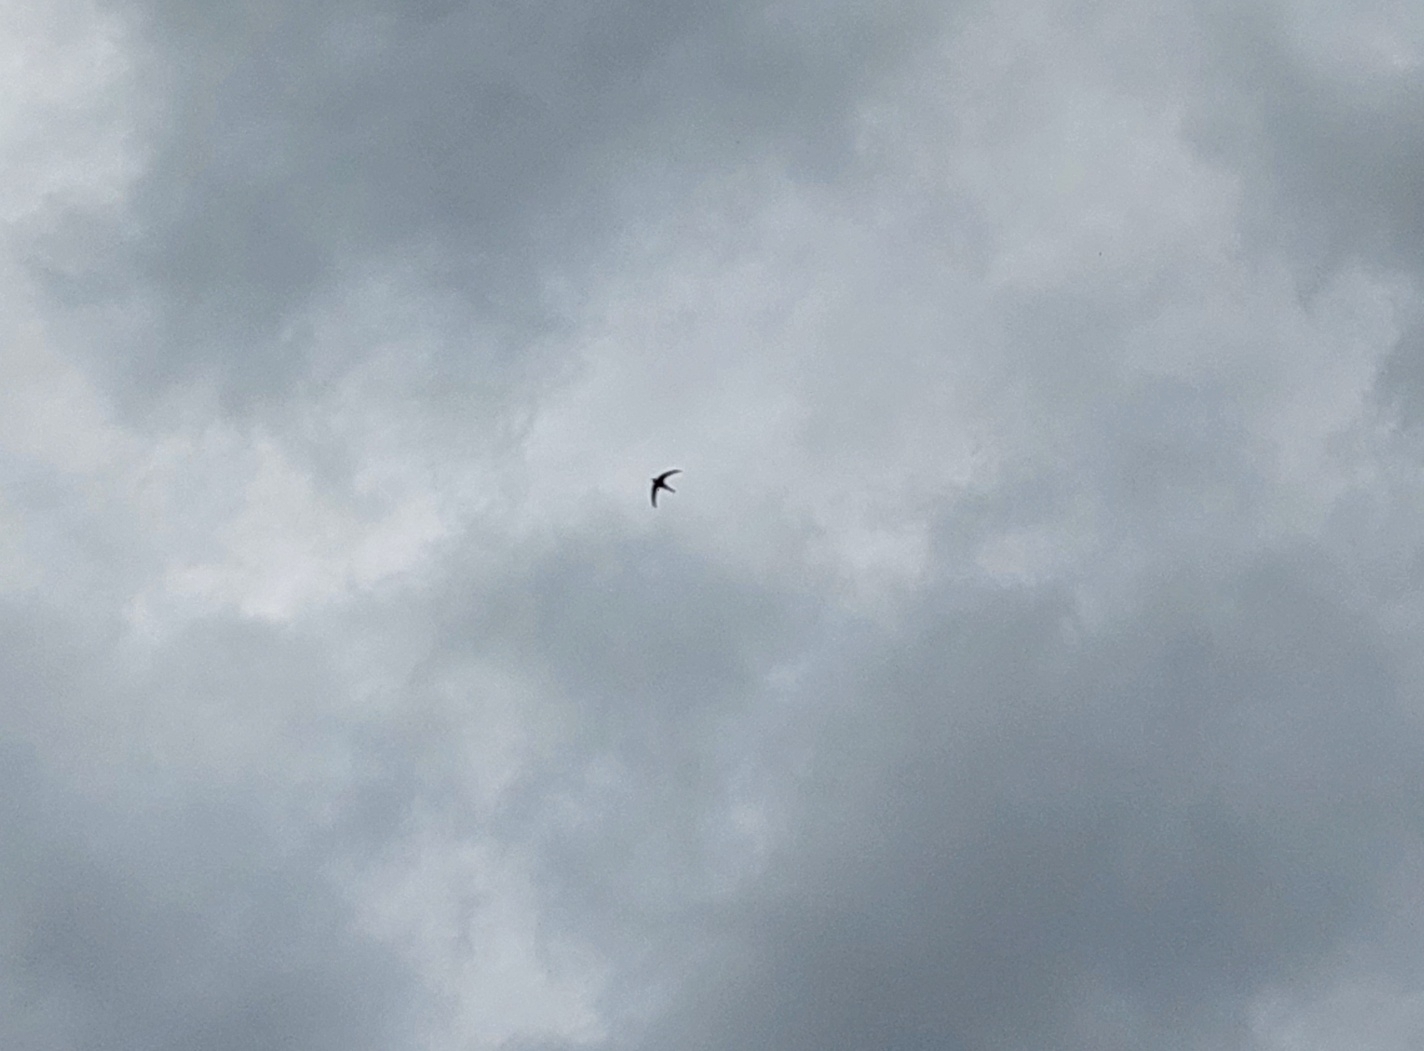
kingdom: Animalia
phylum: Chordata
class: Aves
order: Apodiformes
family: Apodidae
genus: Apus
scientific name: Apus apus
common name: Common swift
